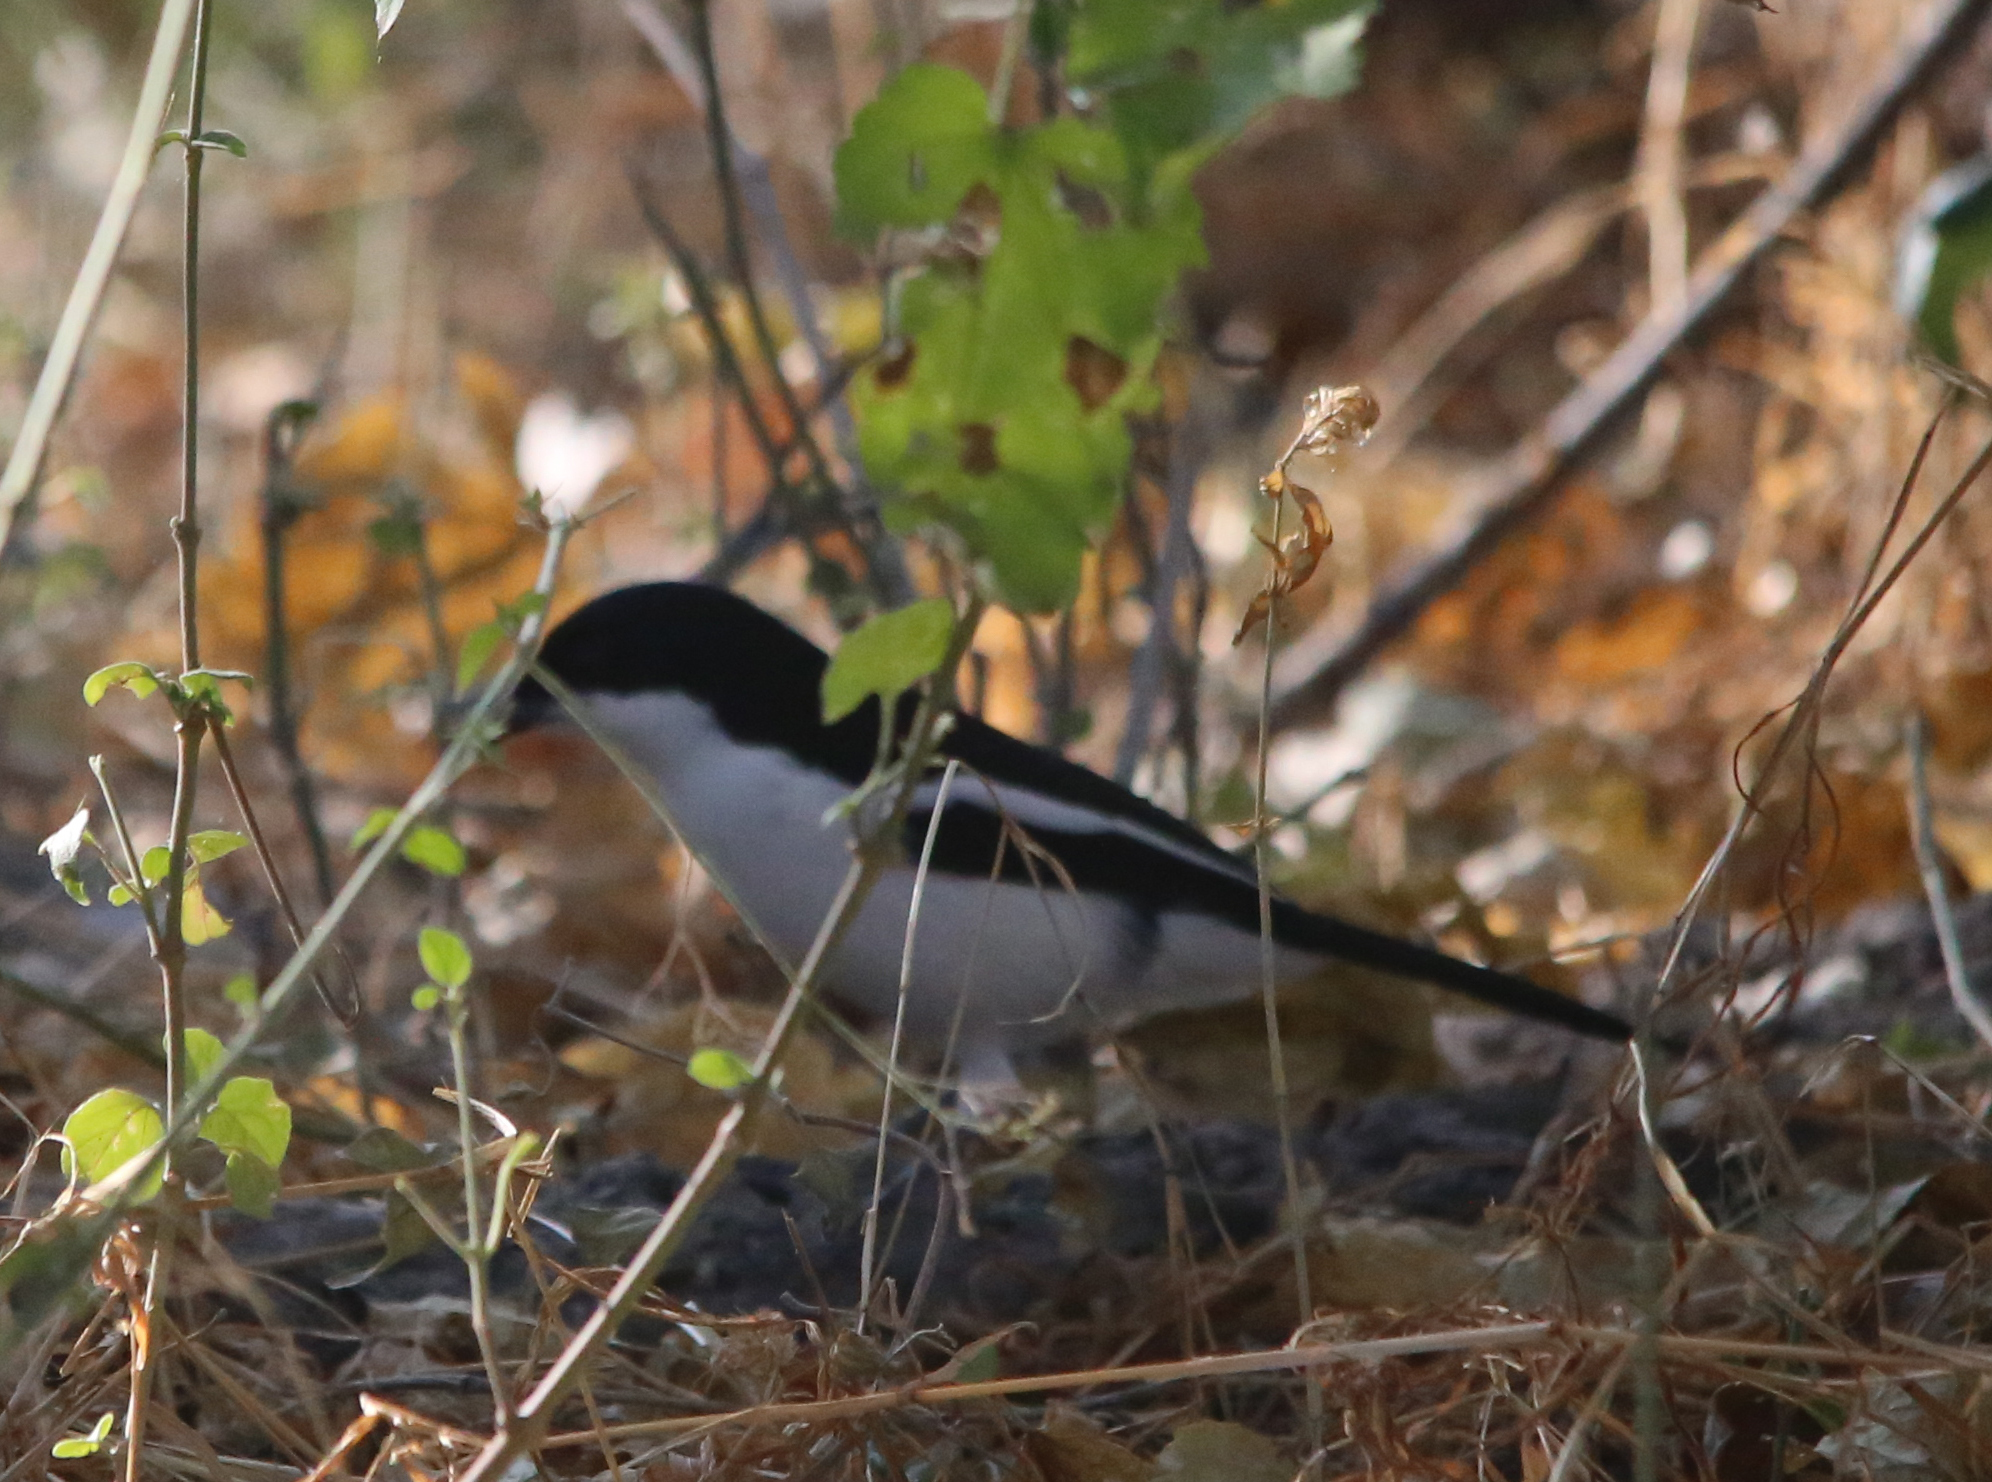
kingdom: Animalia
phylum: Chordata
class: Aves
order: Passeriformes
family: Malaconotidae
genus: Laniarius
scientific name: Laniarius bicolor
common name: Swamp boubou
